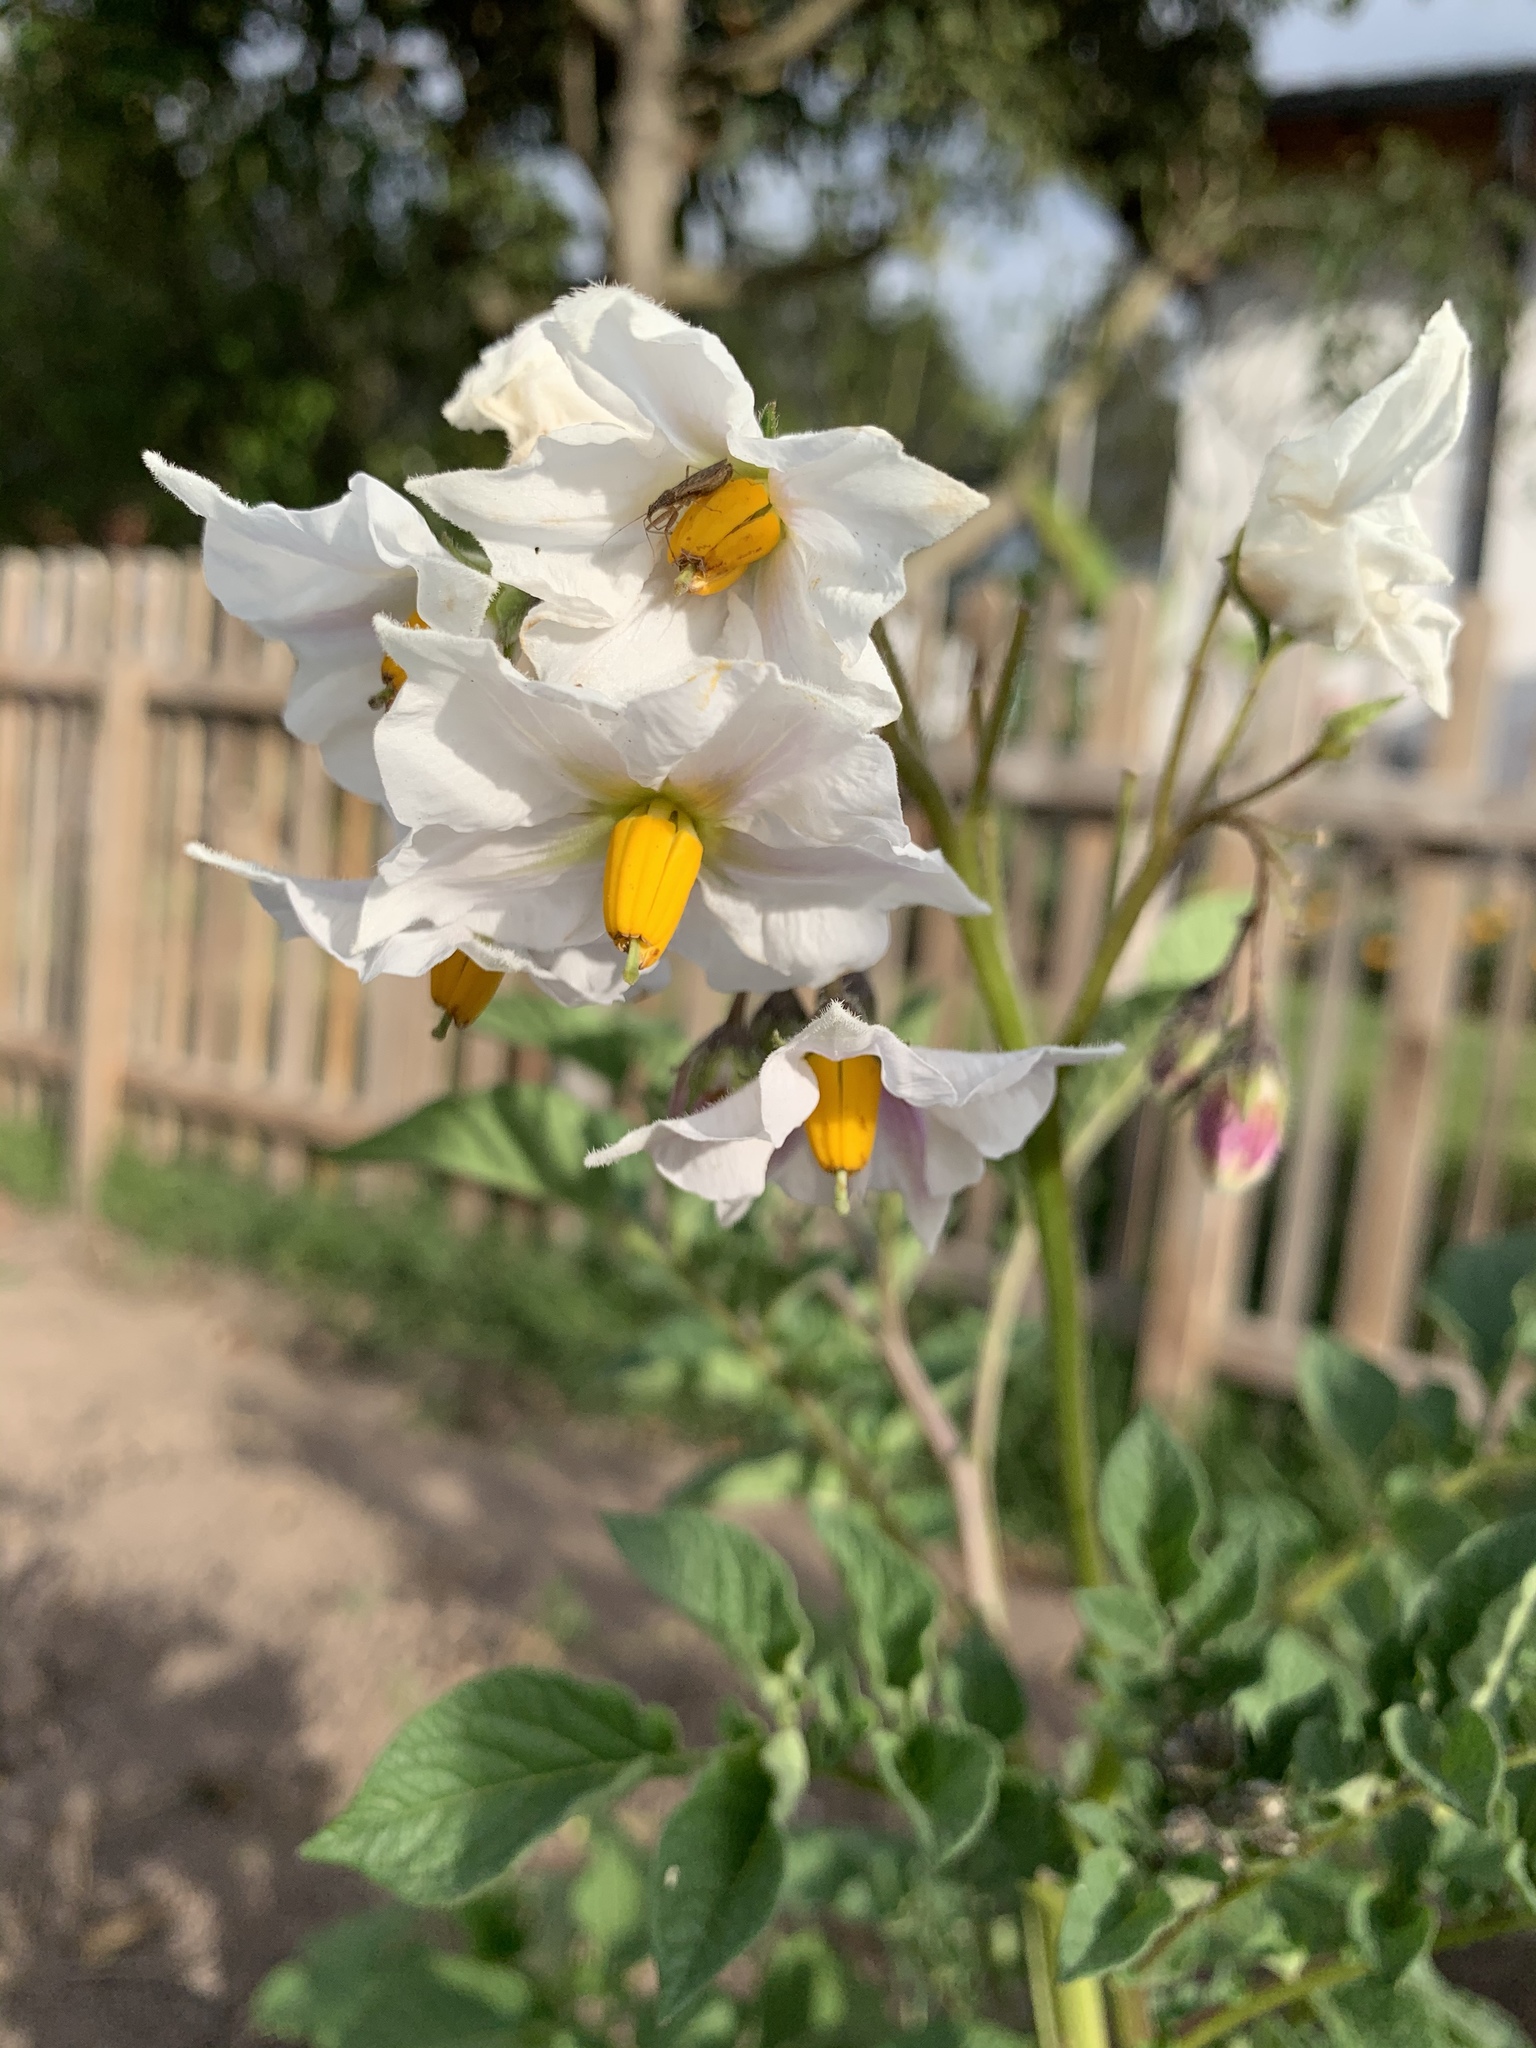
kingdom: Plantae
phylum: Tracheophyta
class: Magnoliopsida
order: Solanales
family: Solanaceae
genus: Solanum
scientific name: Solanum tuberosum
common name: Potato
